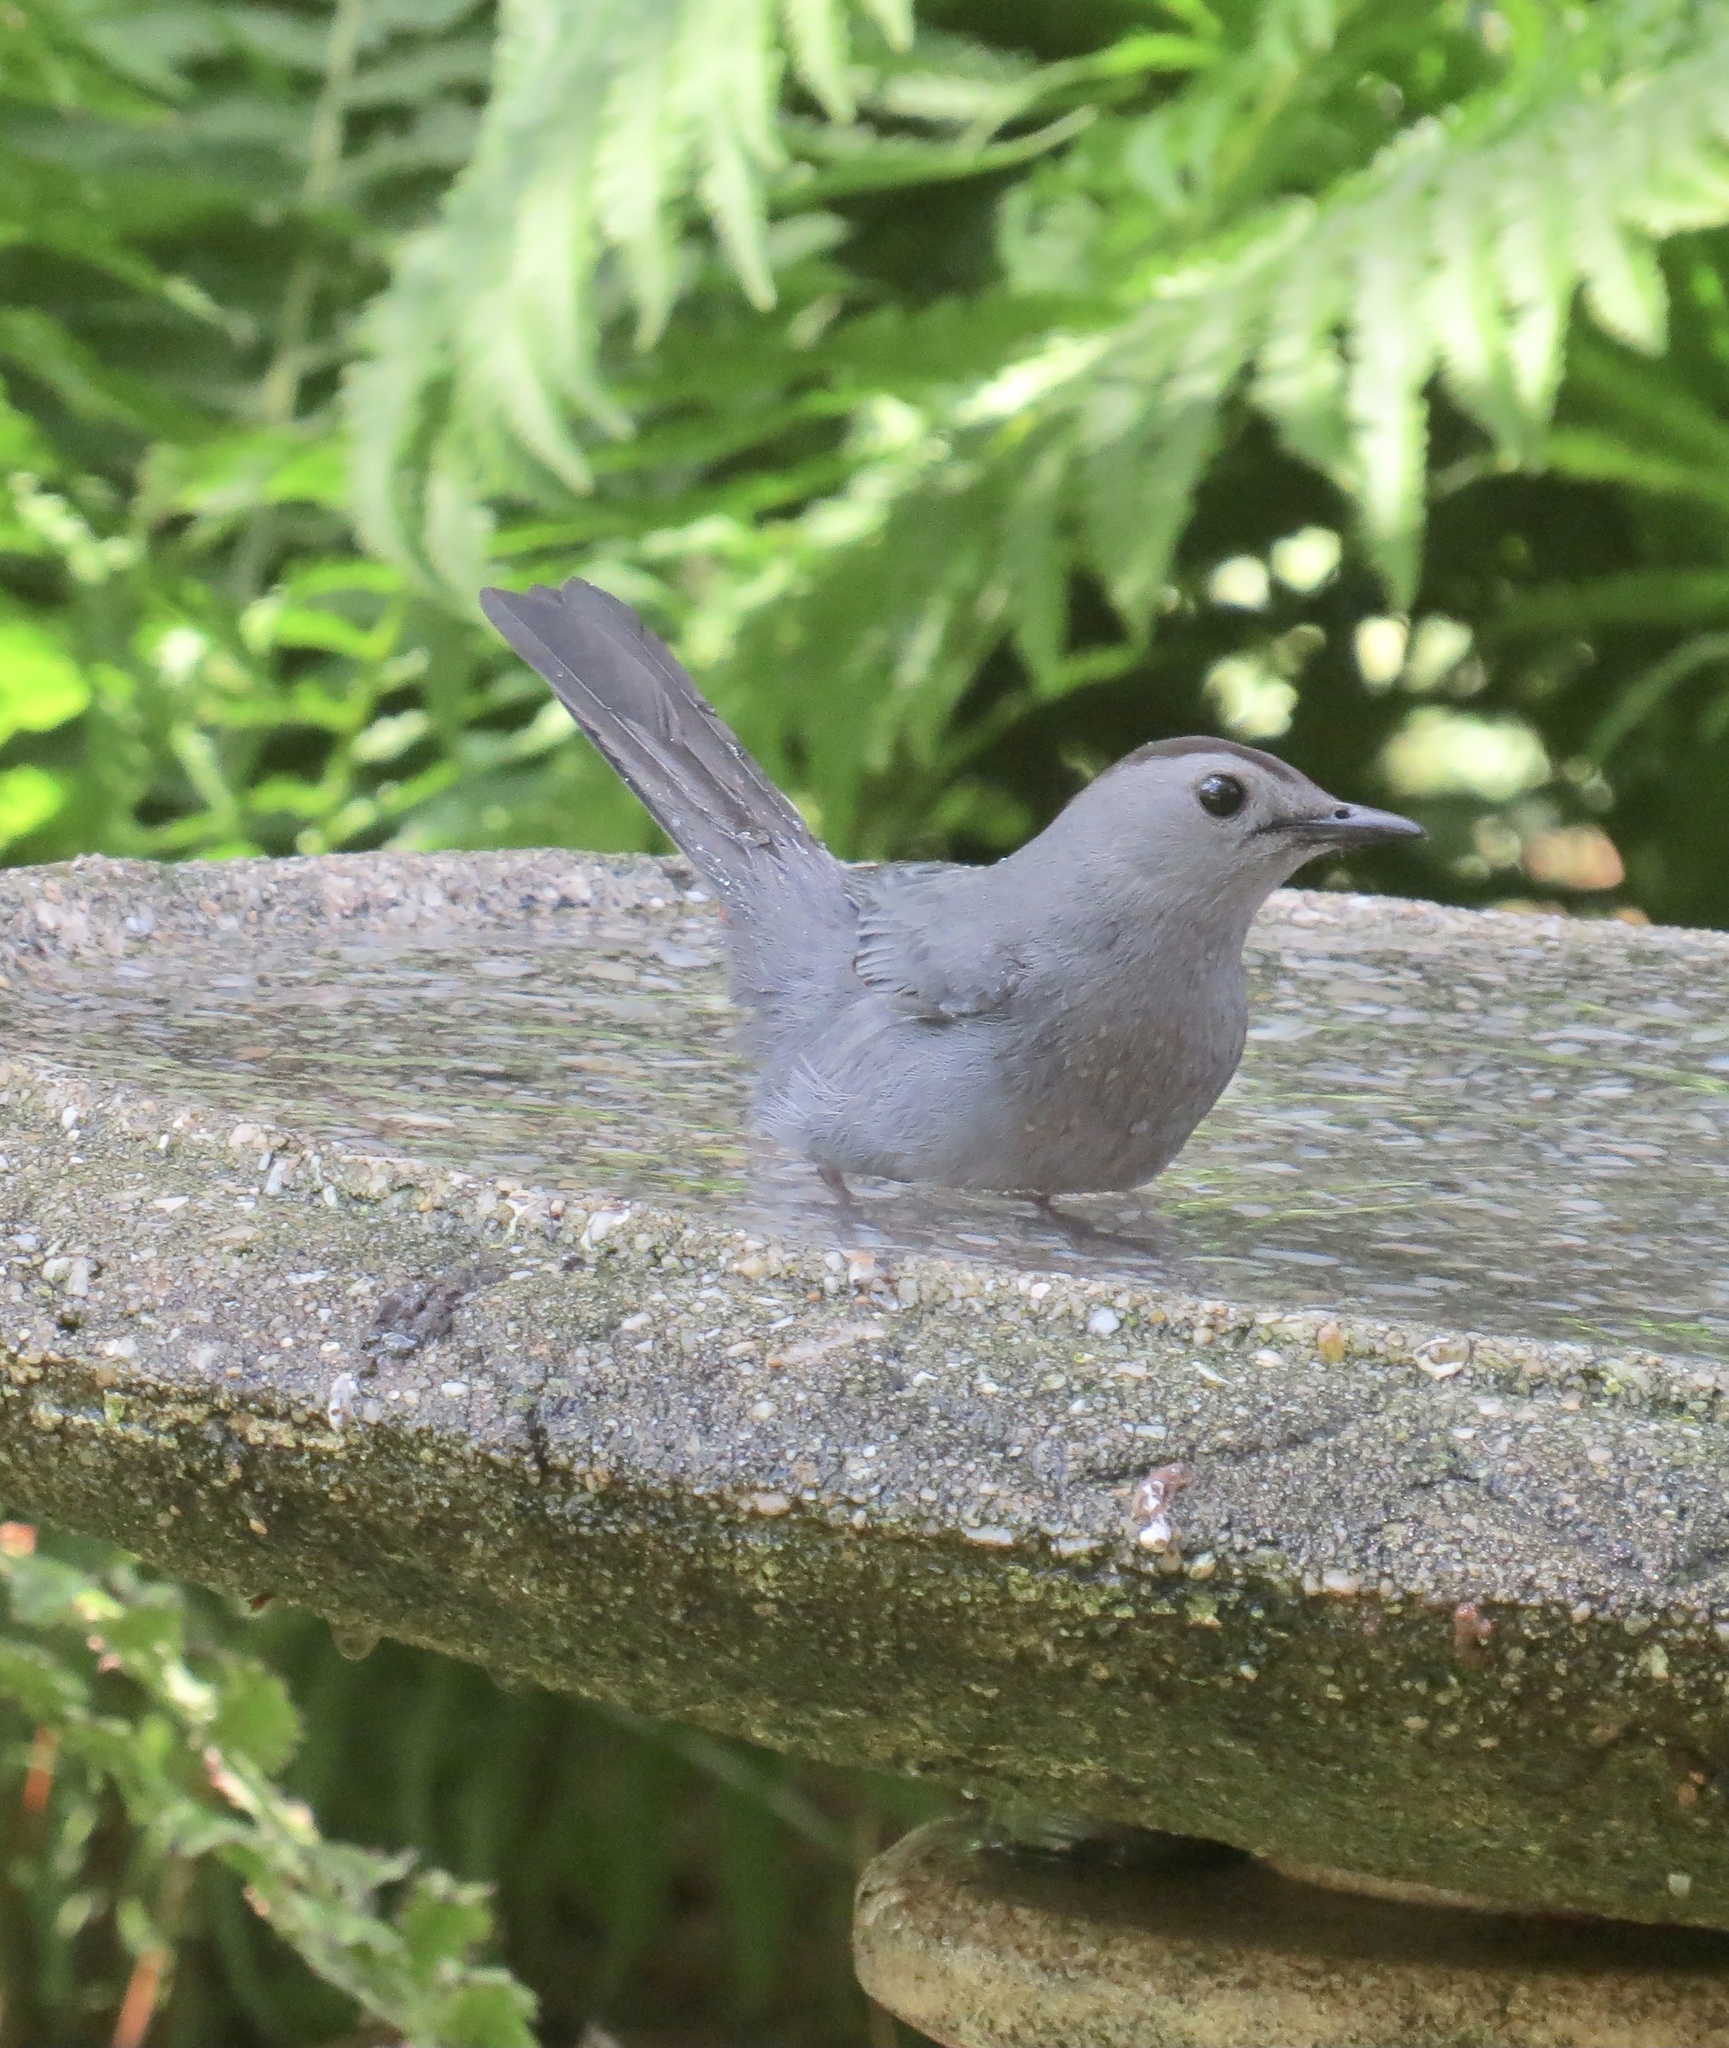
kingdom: Animalia
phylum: Chordata
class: Aves
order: Passeriformes
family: Mimidae
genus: Dumetella
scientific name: Dumetella carolinensis
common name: Gray catbird
